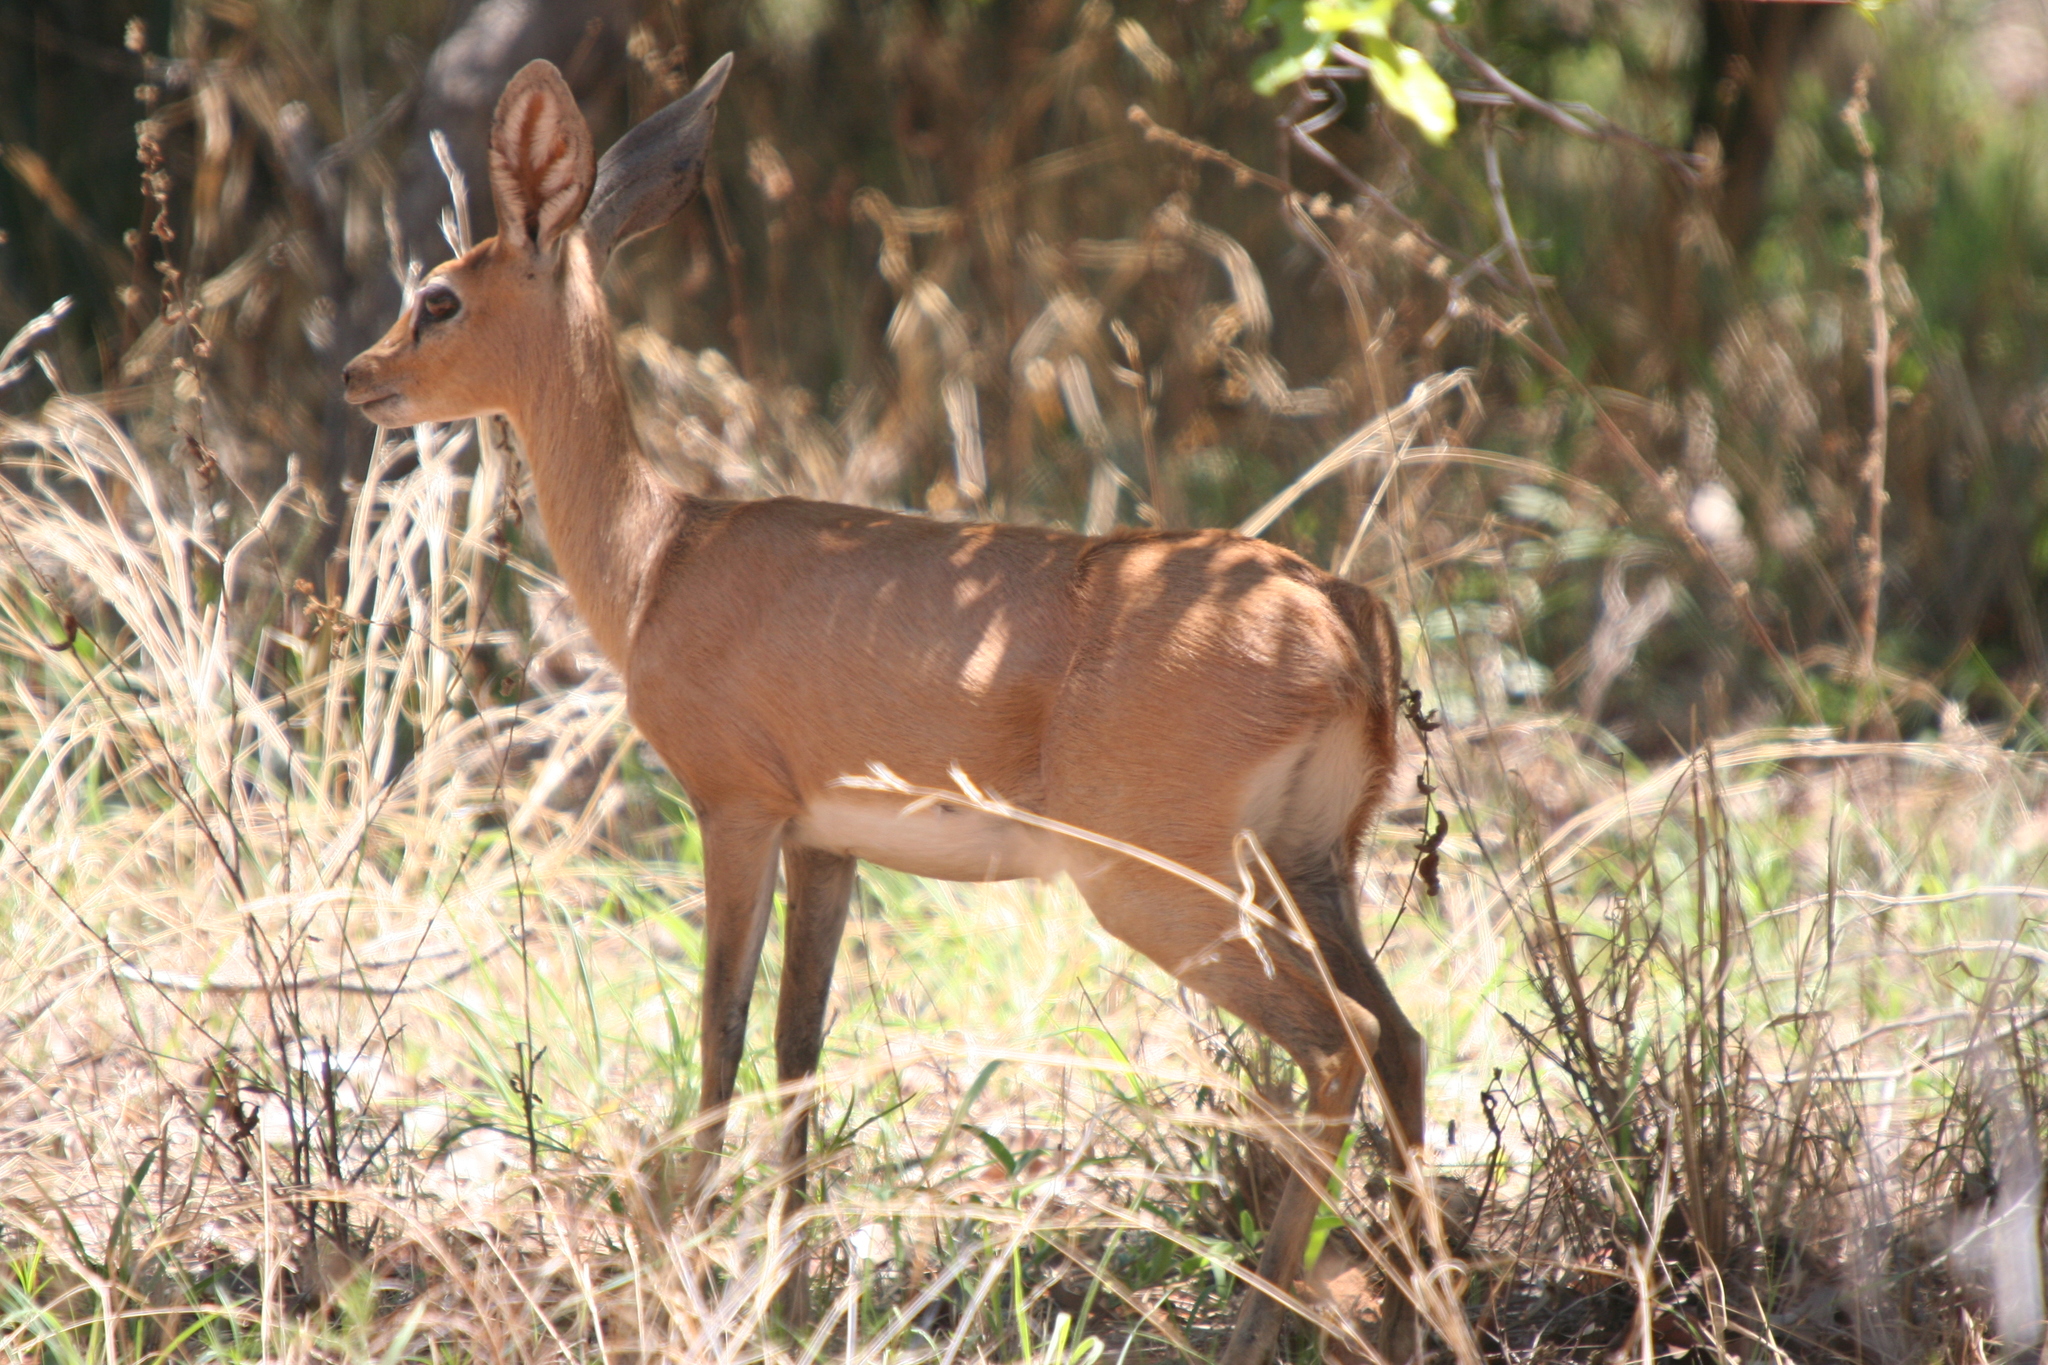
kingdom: Animalia
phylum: Chordata
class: Mammalia
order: Artiodactyla
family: Bovidae
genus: Raphicerus
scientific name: Raphicerus campestris
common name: Steenbok
